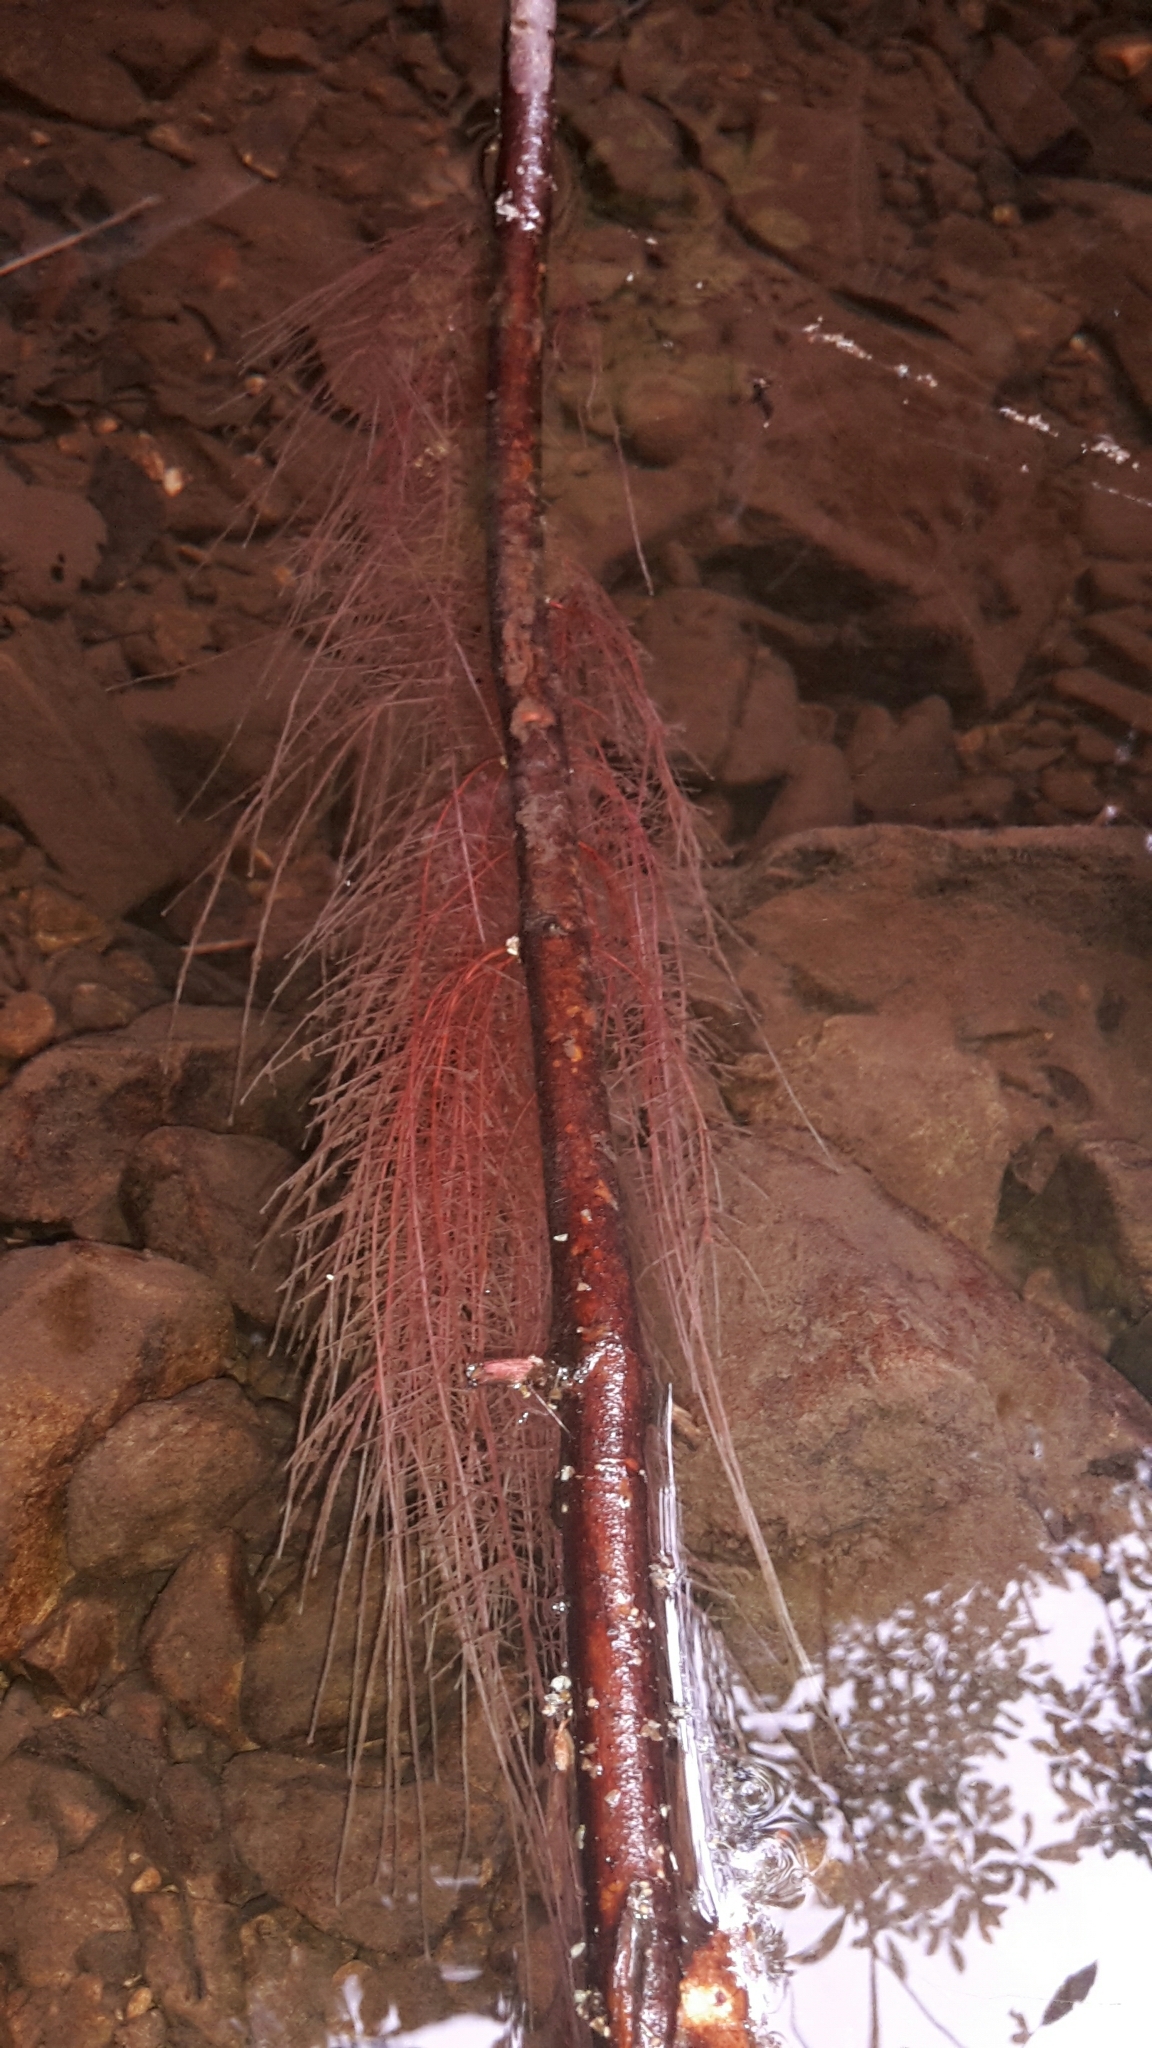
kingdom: Plantae
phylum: Tracheophyta
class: Magnoliopsida
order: Oxalidales
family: Elaeocarpaceae
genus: Aristotelia
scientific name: Aristotelia serrata
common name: New zealand wineberry
